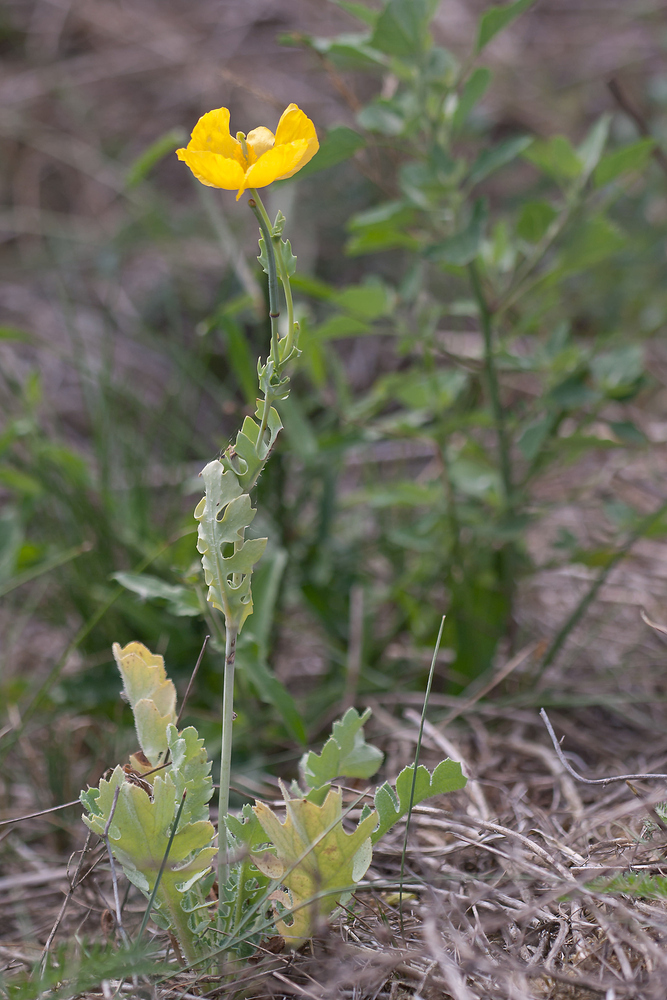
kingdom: Plantae
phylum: Tracheophyta
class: Magnoliopsida
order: Ranunculales
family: Papaveraceae
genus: Glaucium
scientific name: Glaucium flavum
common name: Yellow horned-poppy
